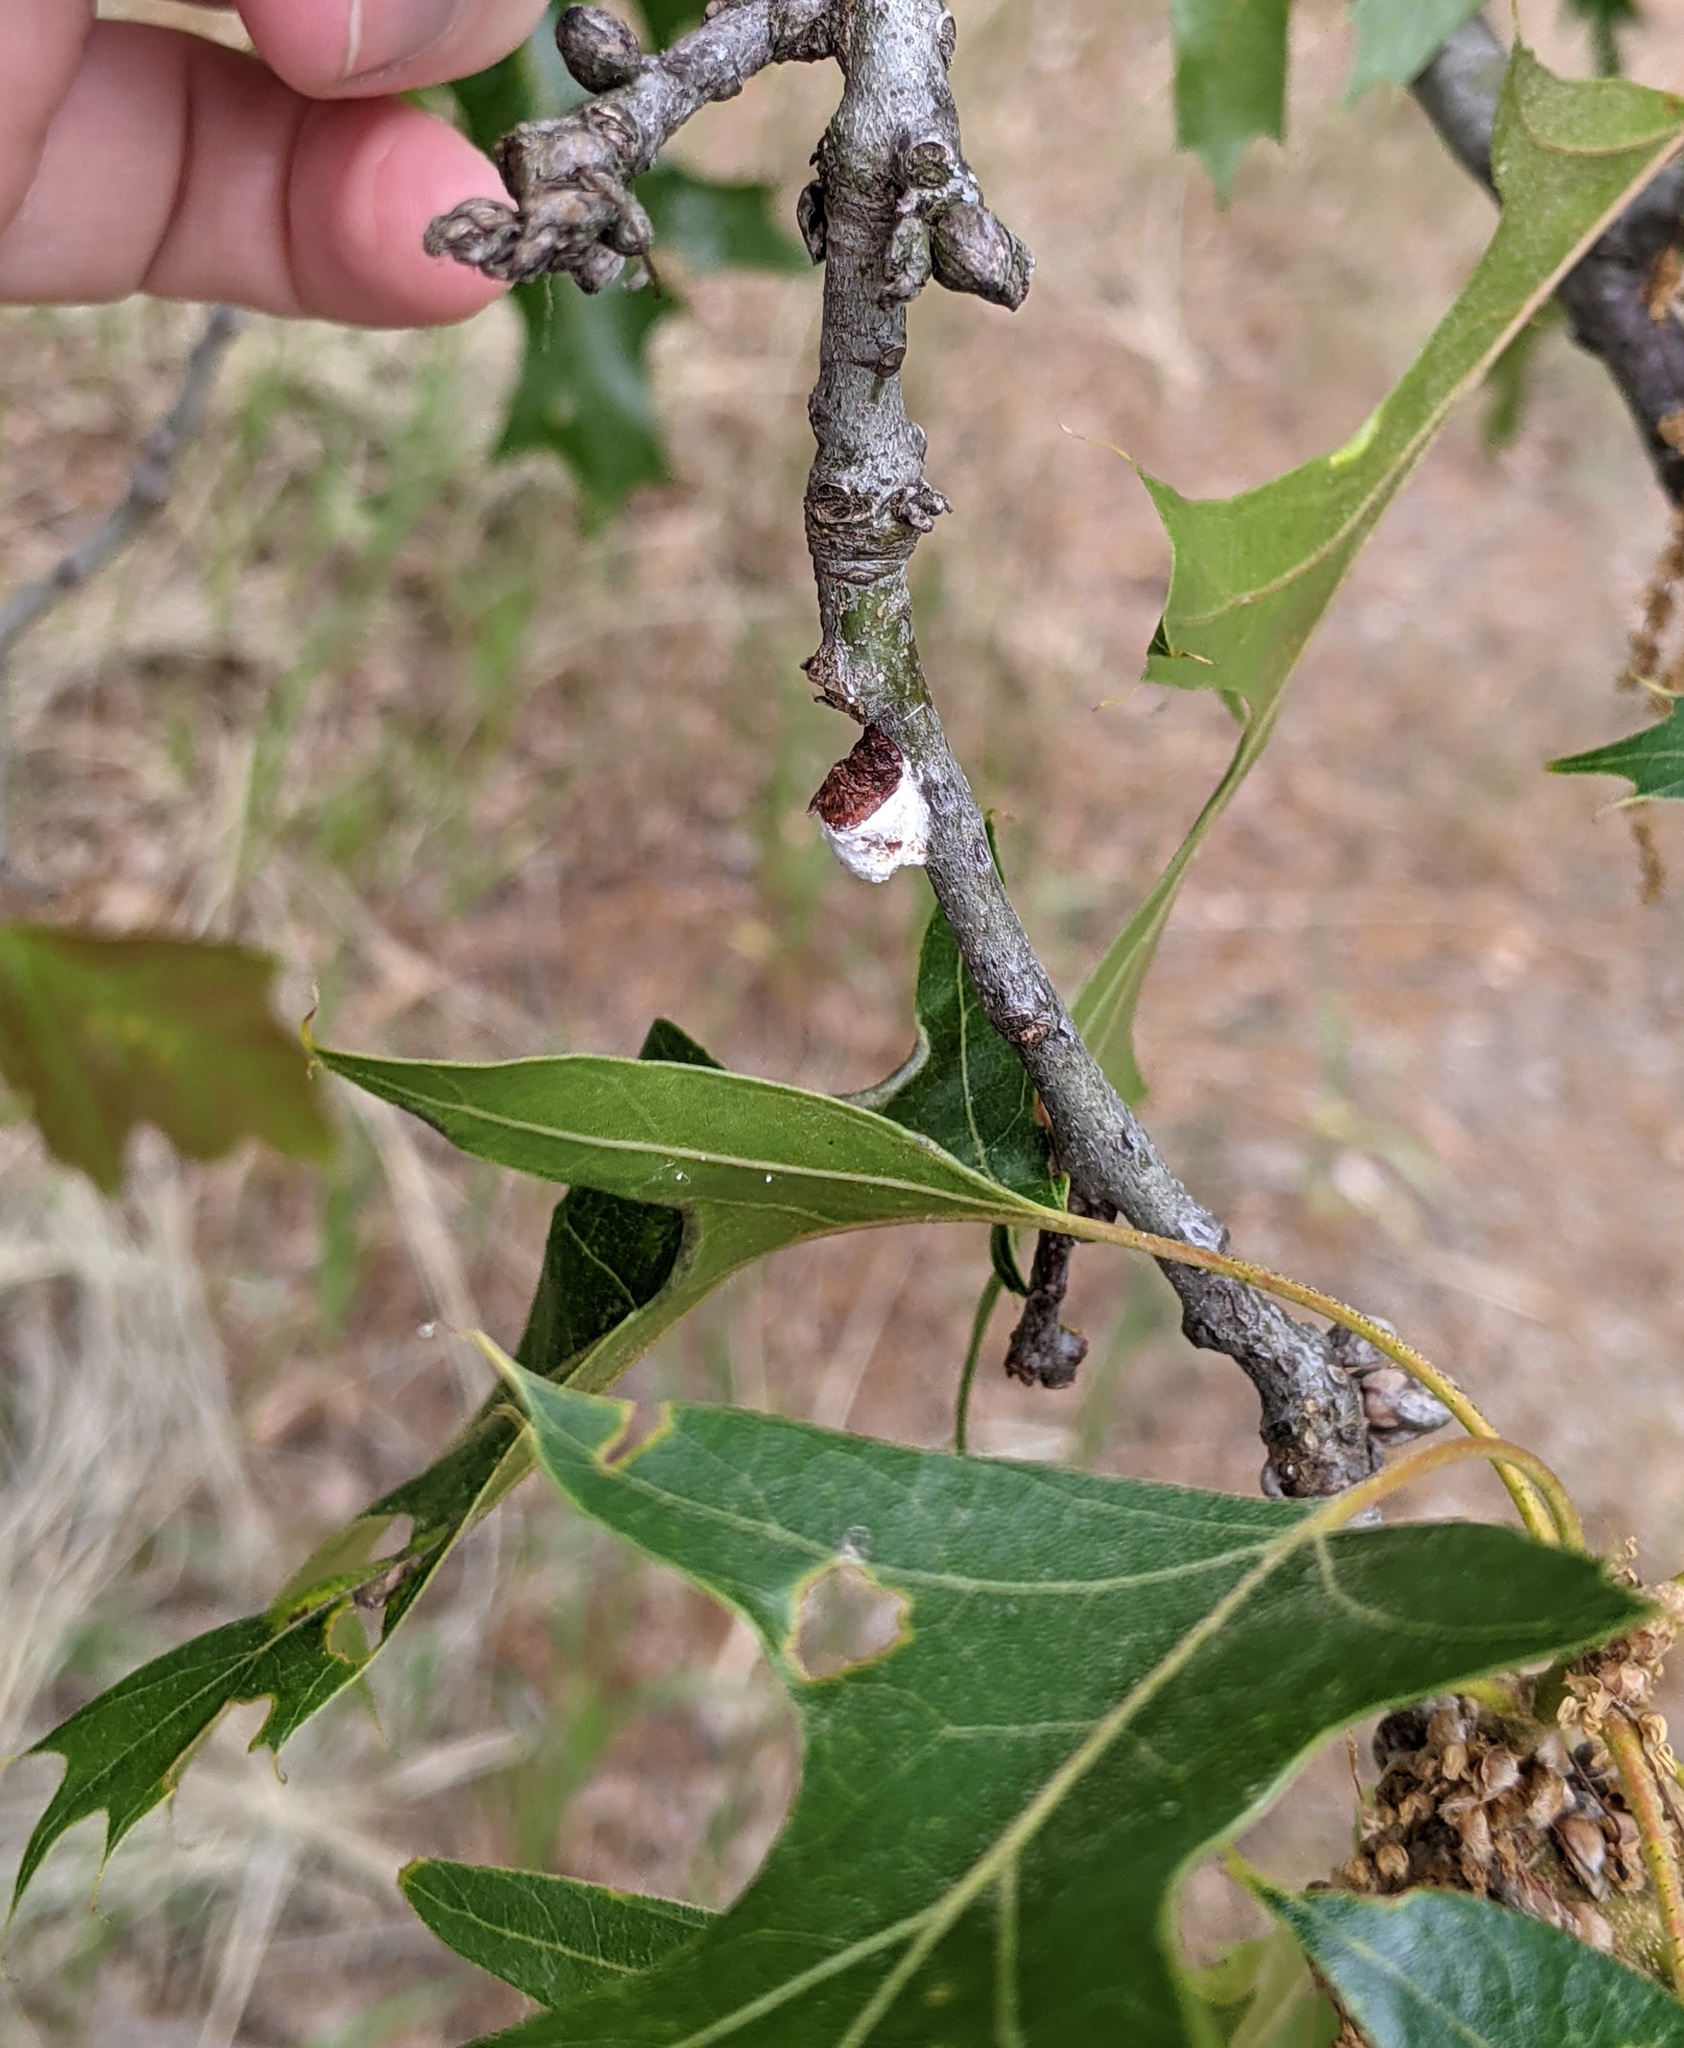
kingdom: Animalia
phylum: Arthropoda
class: Insecta
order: Hemiptera
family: Coccidae
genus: Pulvinaria
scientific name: Pulvinaria
